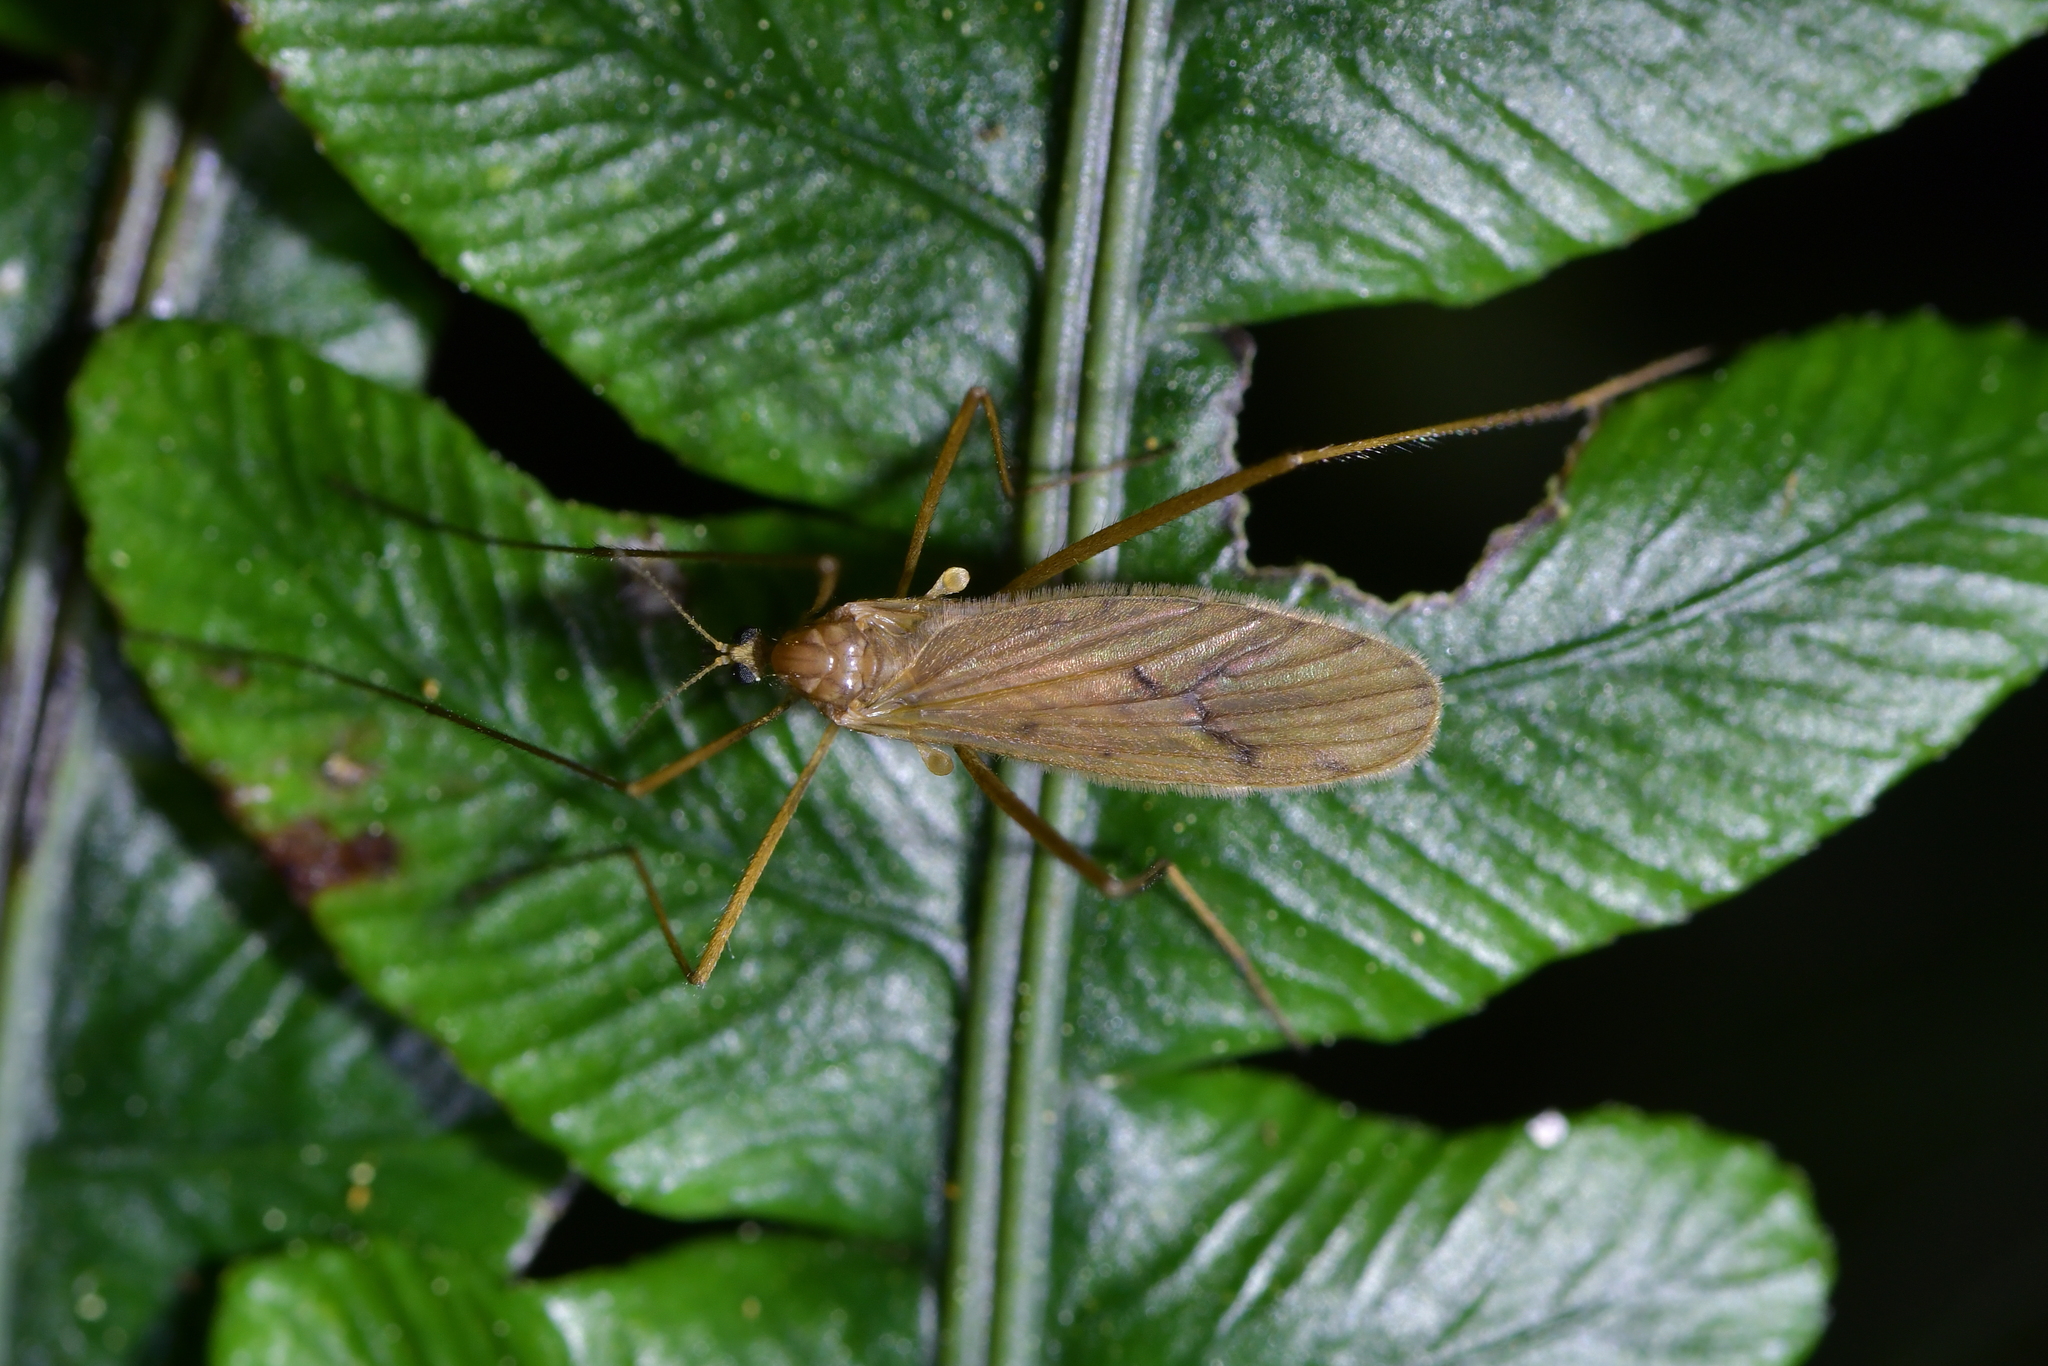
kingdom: Animalia
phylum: Arthropoda
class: Insecta
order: Diptera
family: Limoniidae
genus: Amphineurus
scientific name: Amphineurus insulsus
